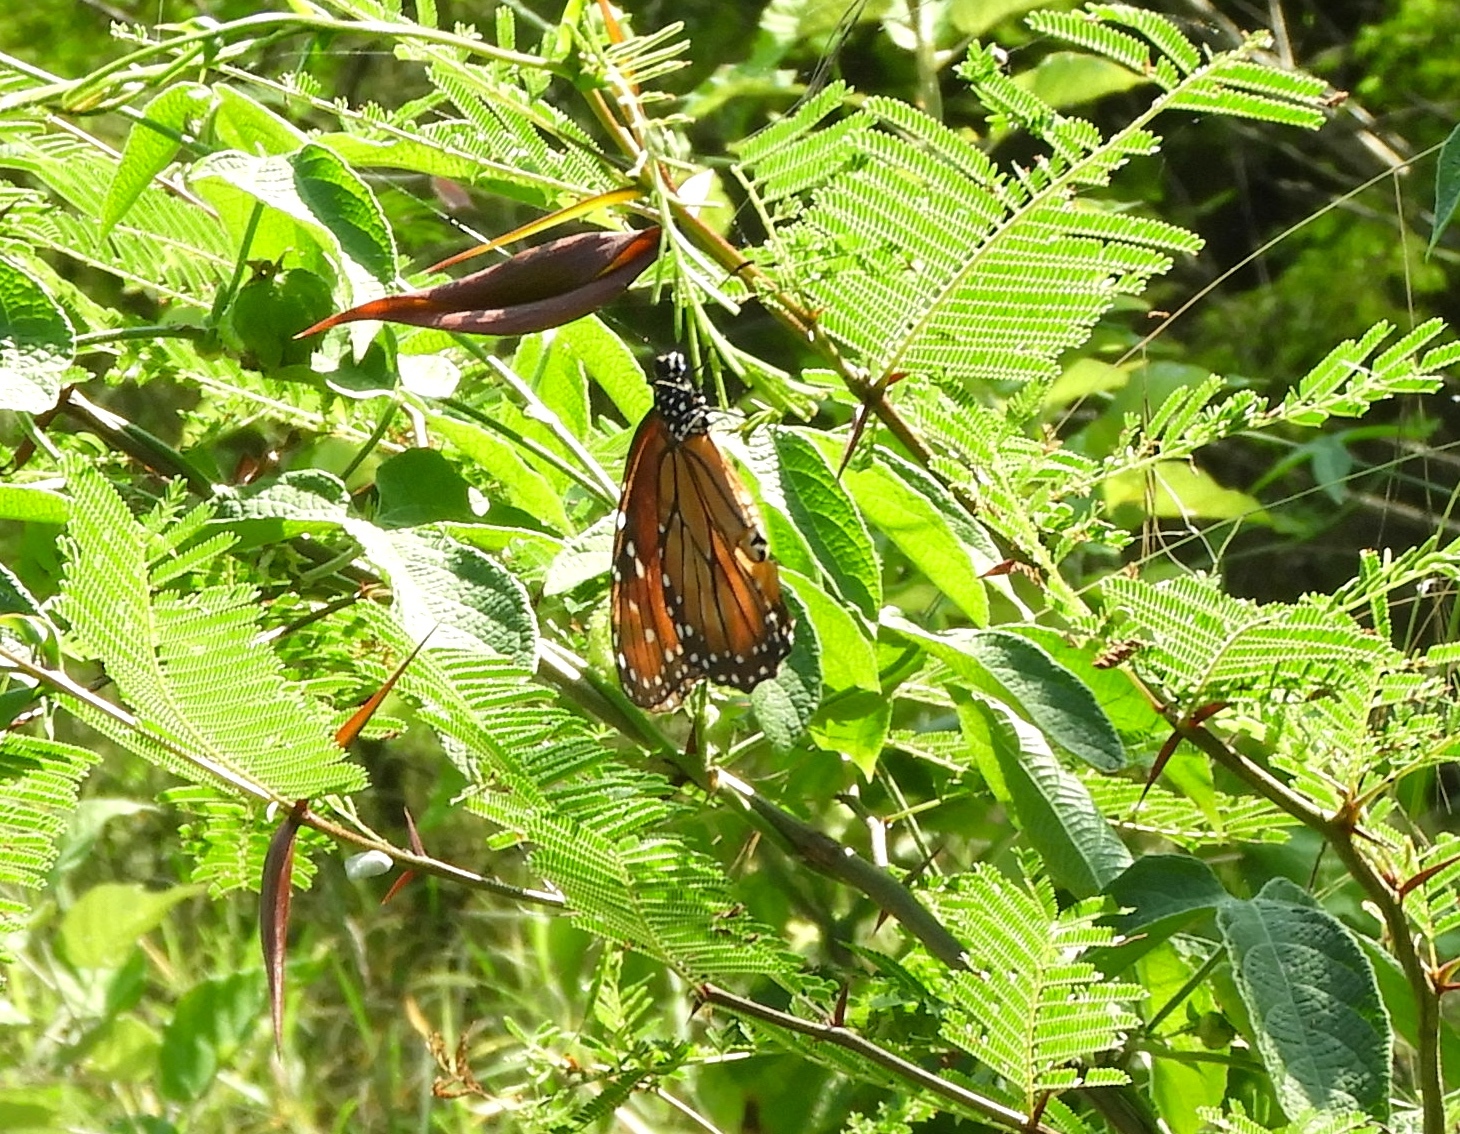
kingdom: Animalia
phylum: Arthropoda
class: Insecta
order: Lepidoptera
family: Nymphalidae
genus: Danaus
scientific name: Danaus eresimus
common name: Soldier
